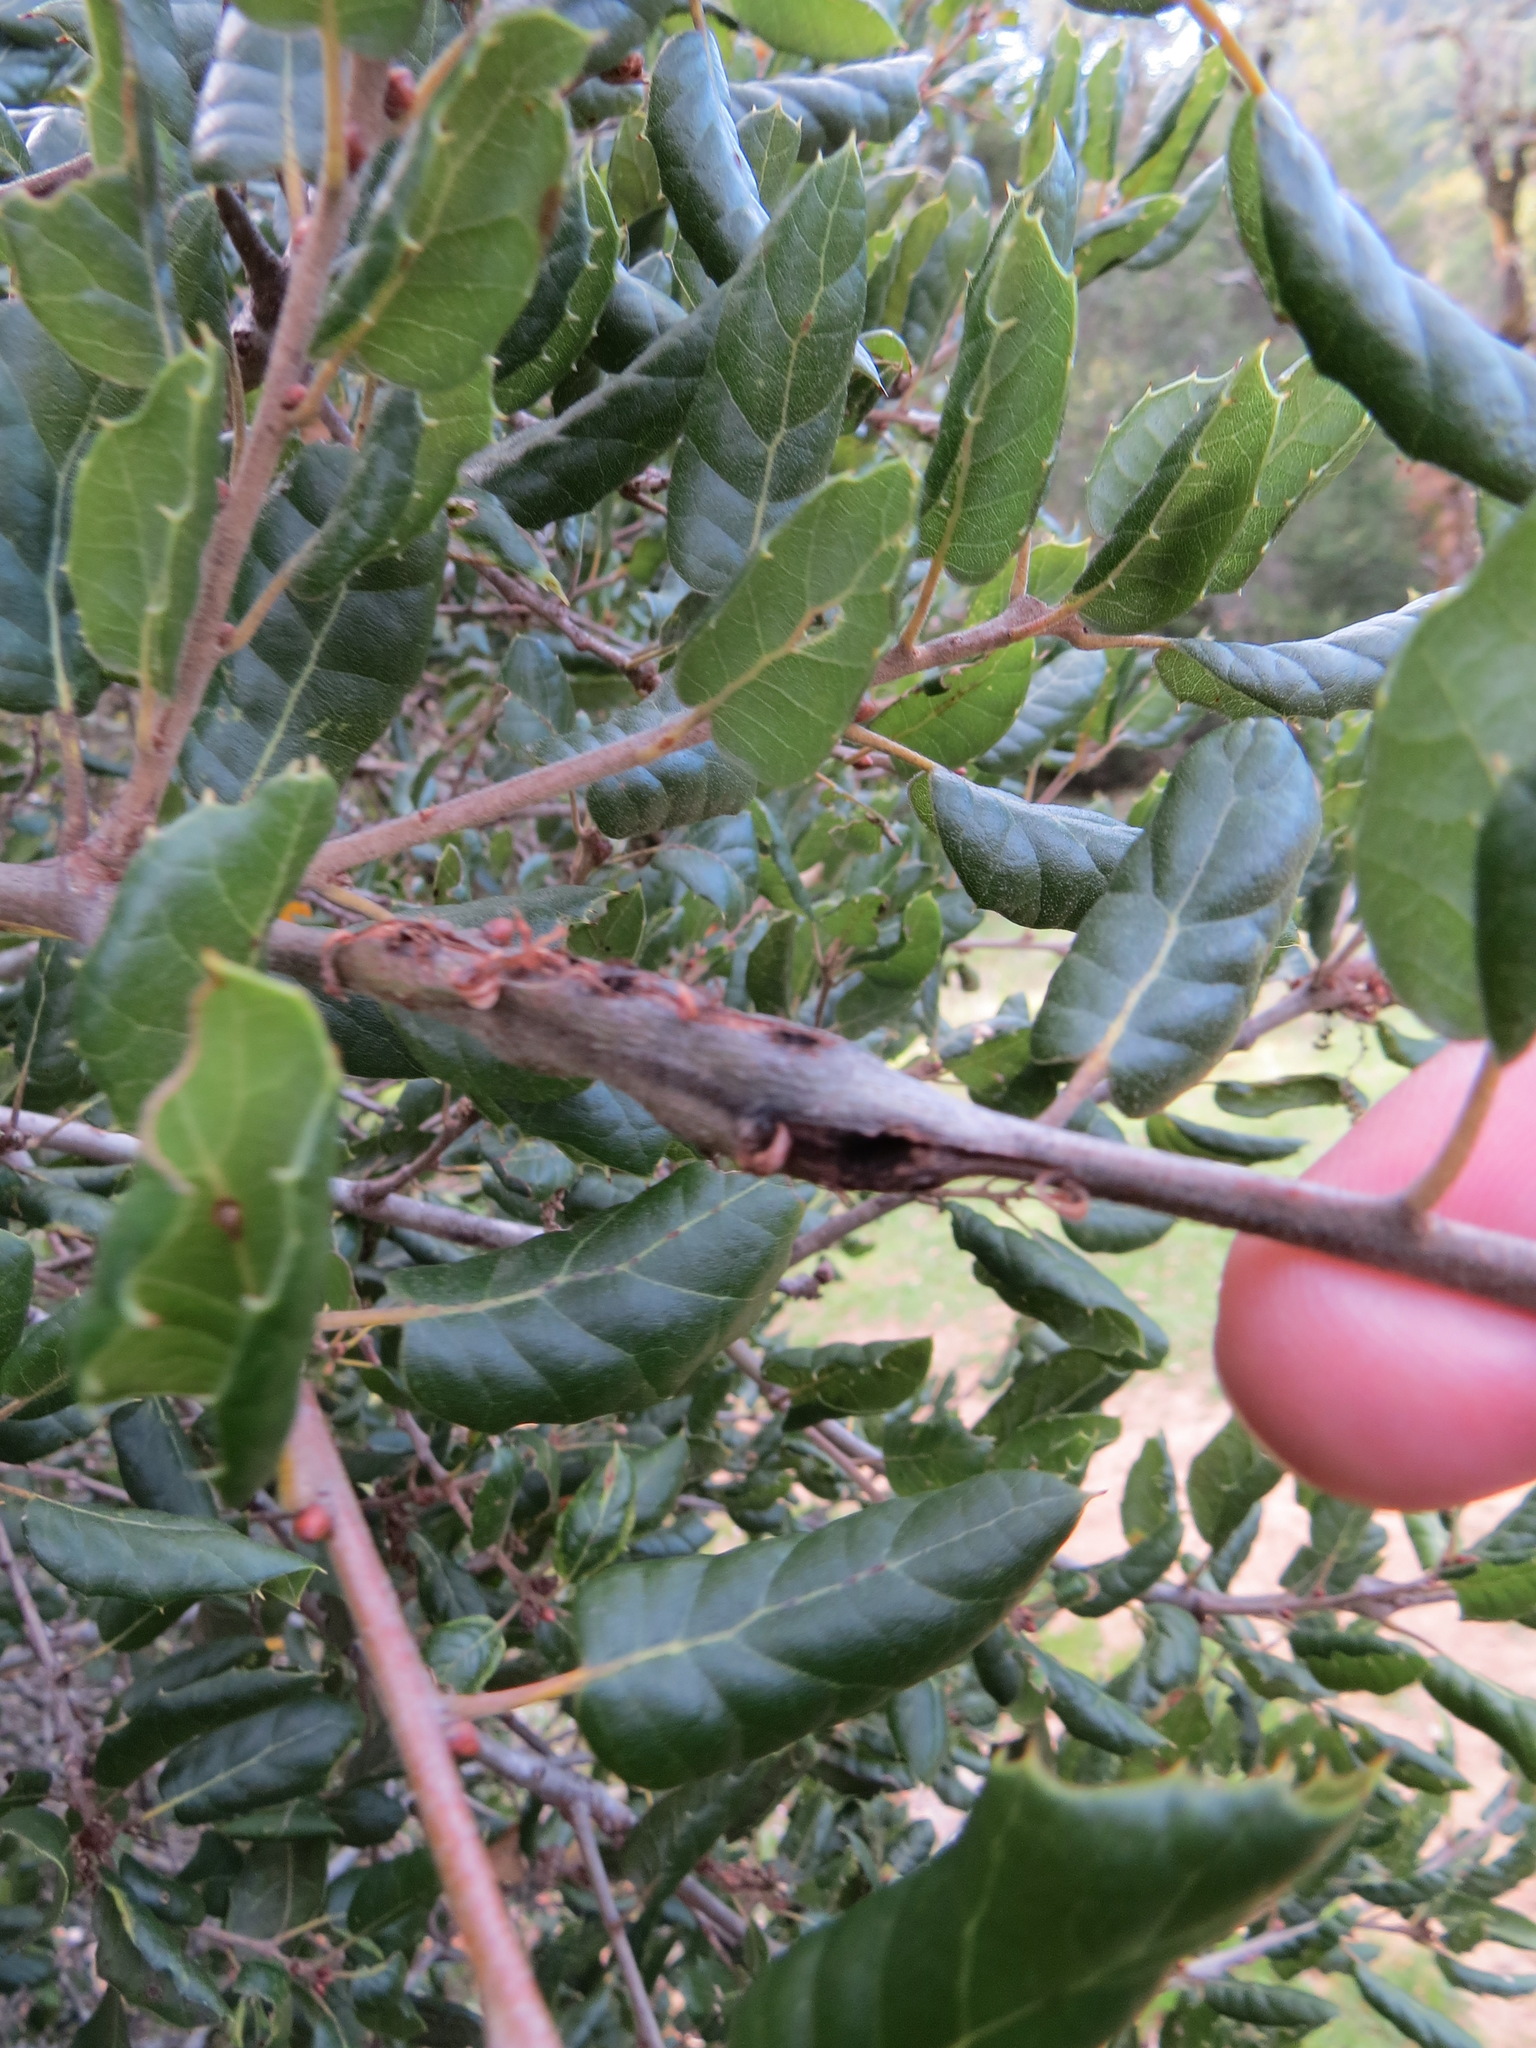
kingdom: Animalia
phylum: Arthropoda
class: Insecta
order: Hymenoptera
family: Cynipidae
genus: Callirhytis
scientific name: Callirhytis
